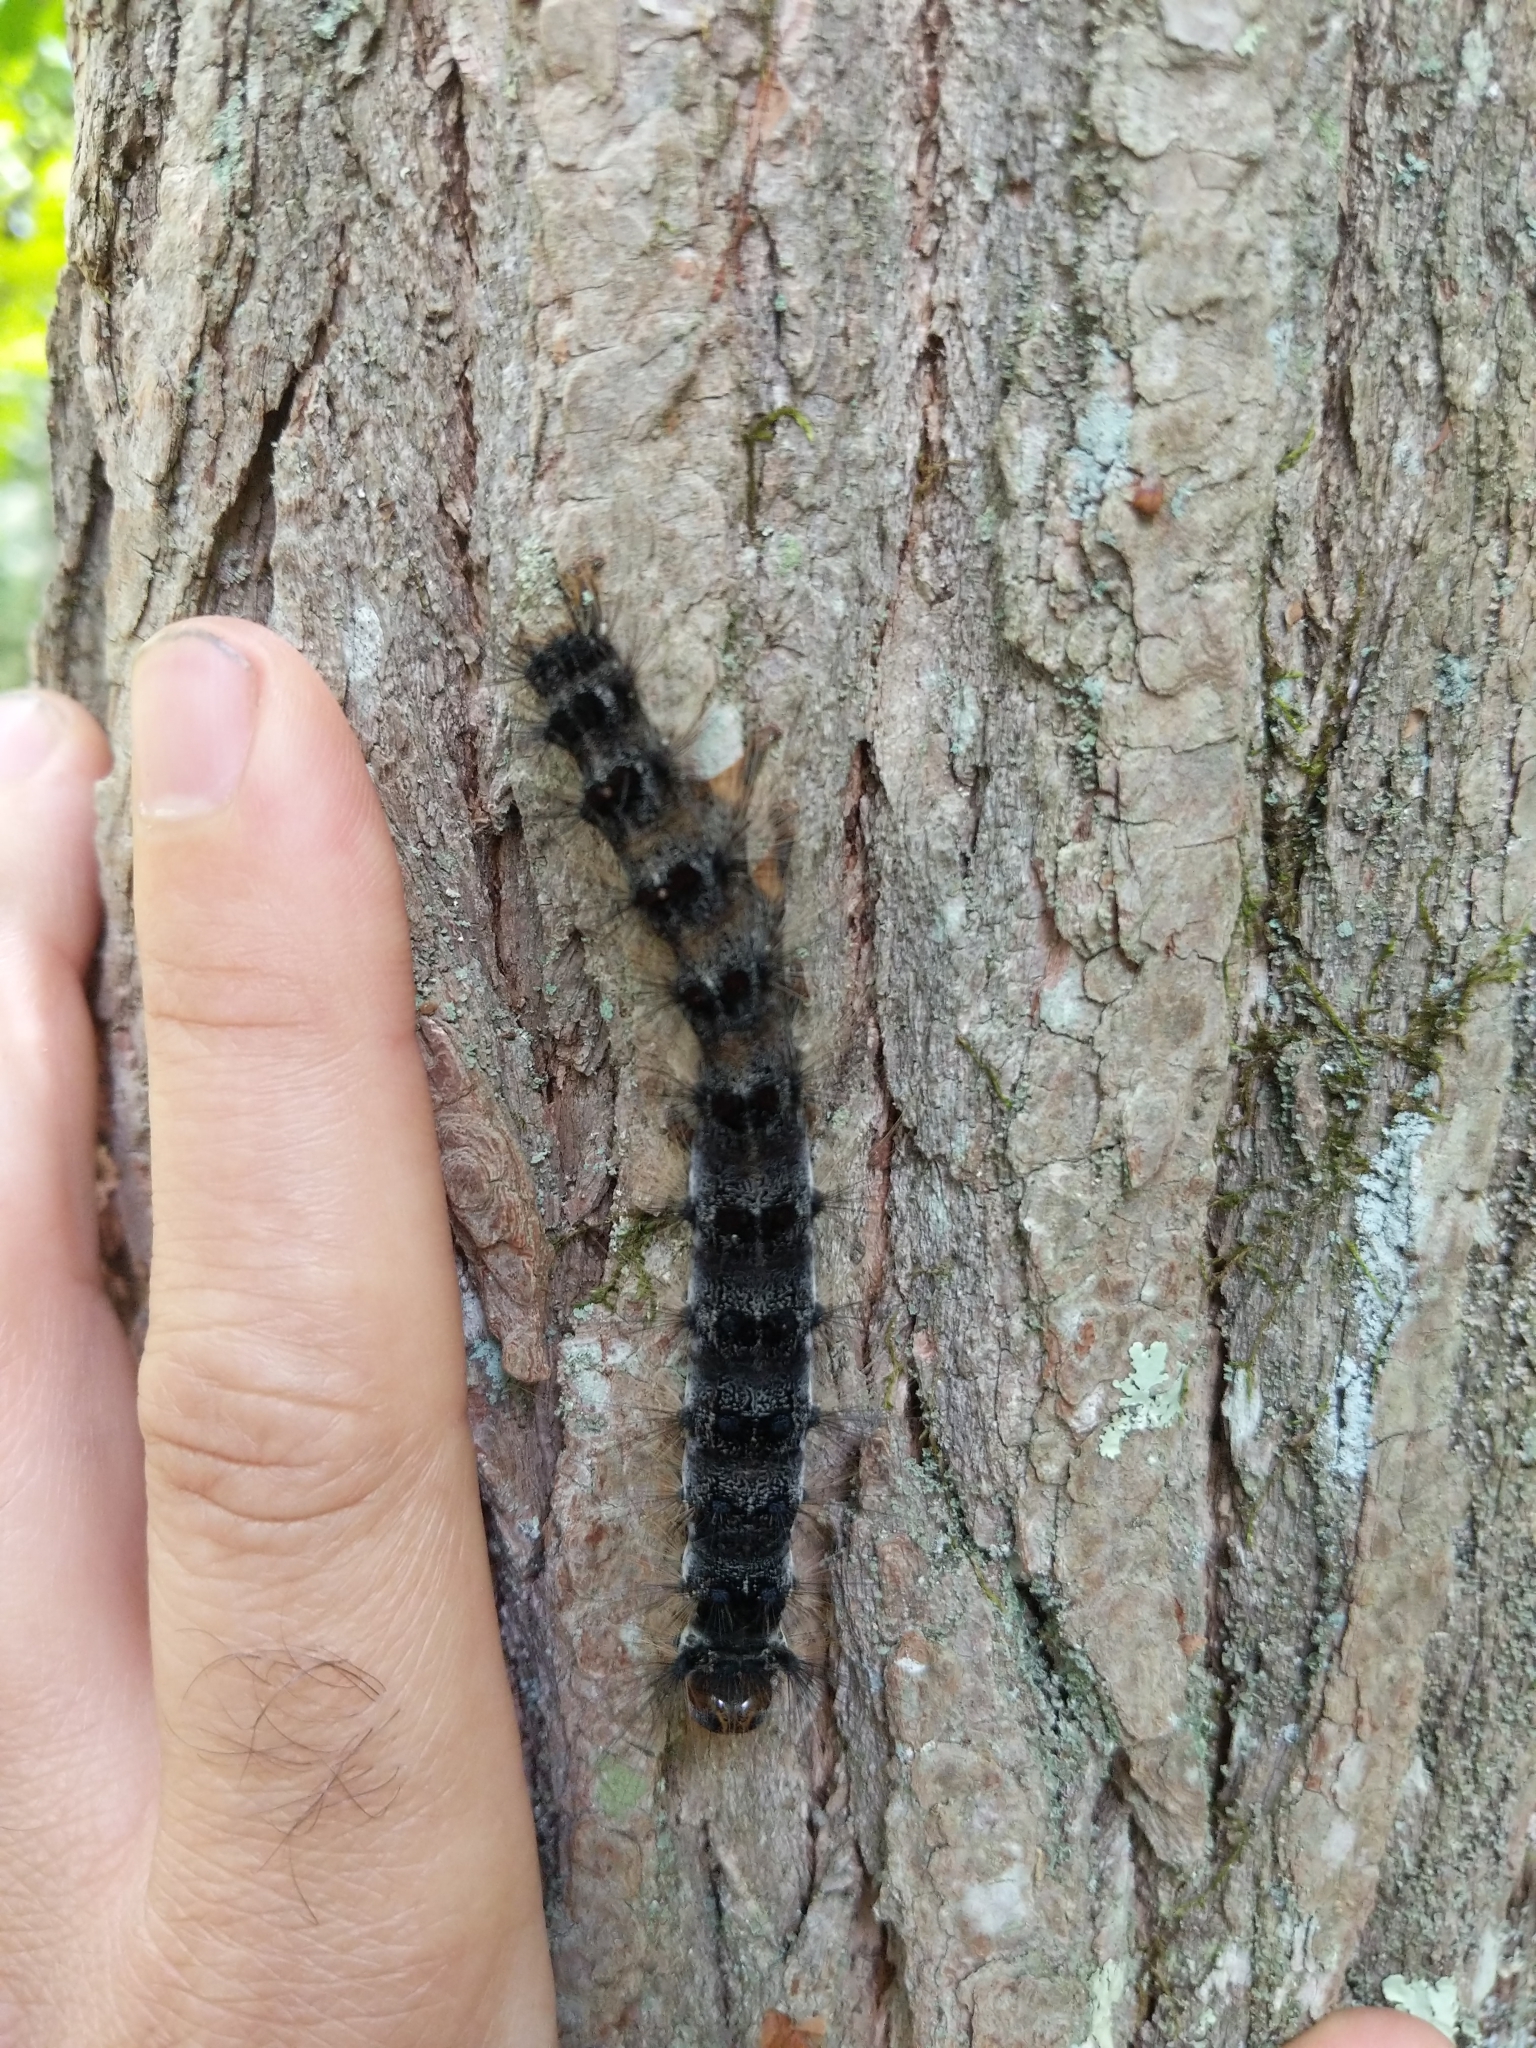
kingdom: Animalia
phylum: Arthropoda
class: Insecta
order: Lepidoptera
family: Erebidae
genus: Lymantria
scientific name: Lymantria dispar
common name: Gypsy moth
